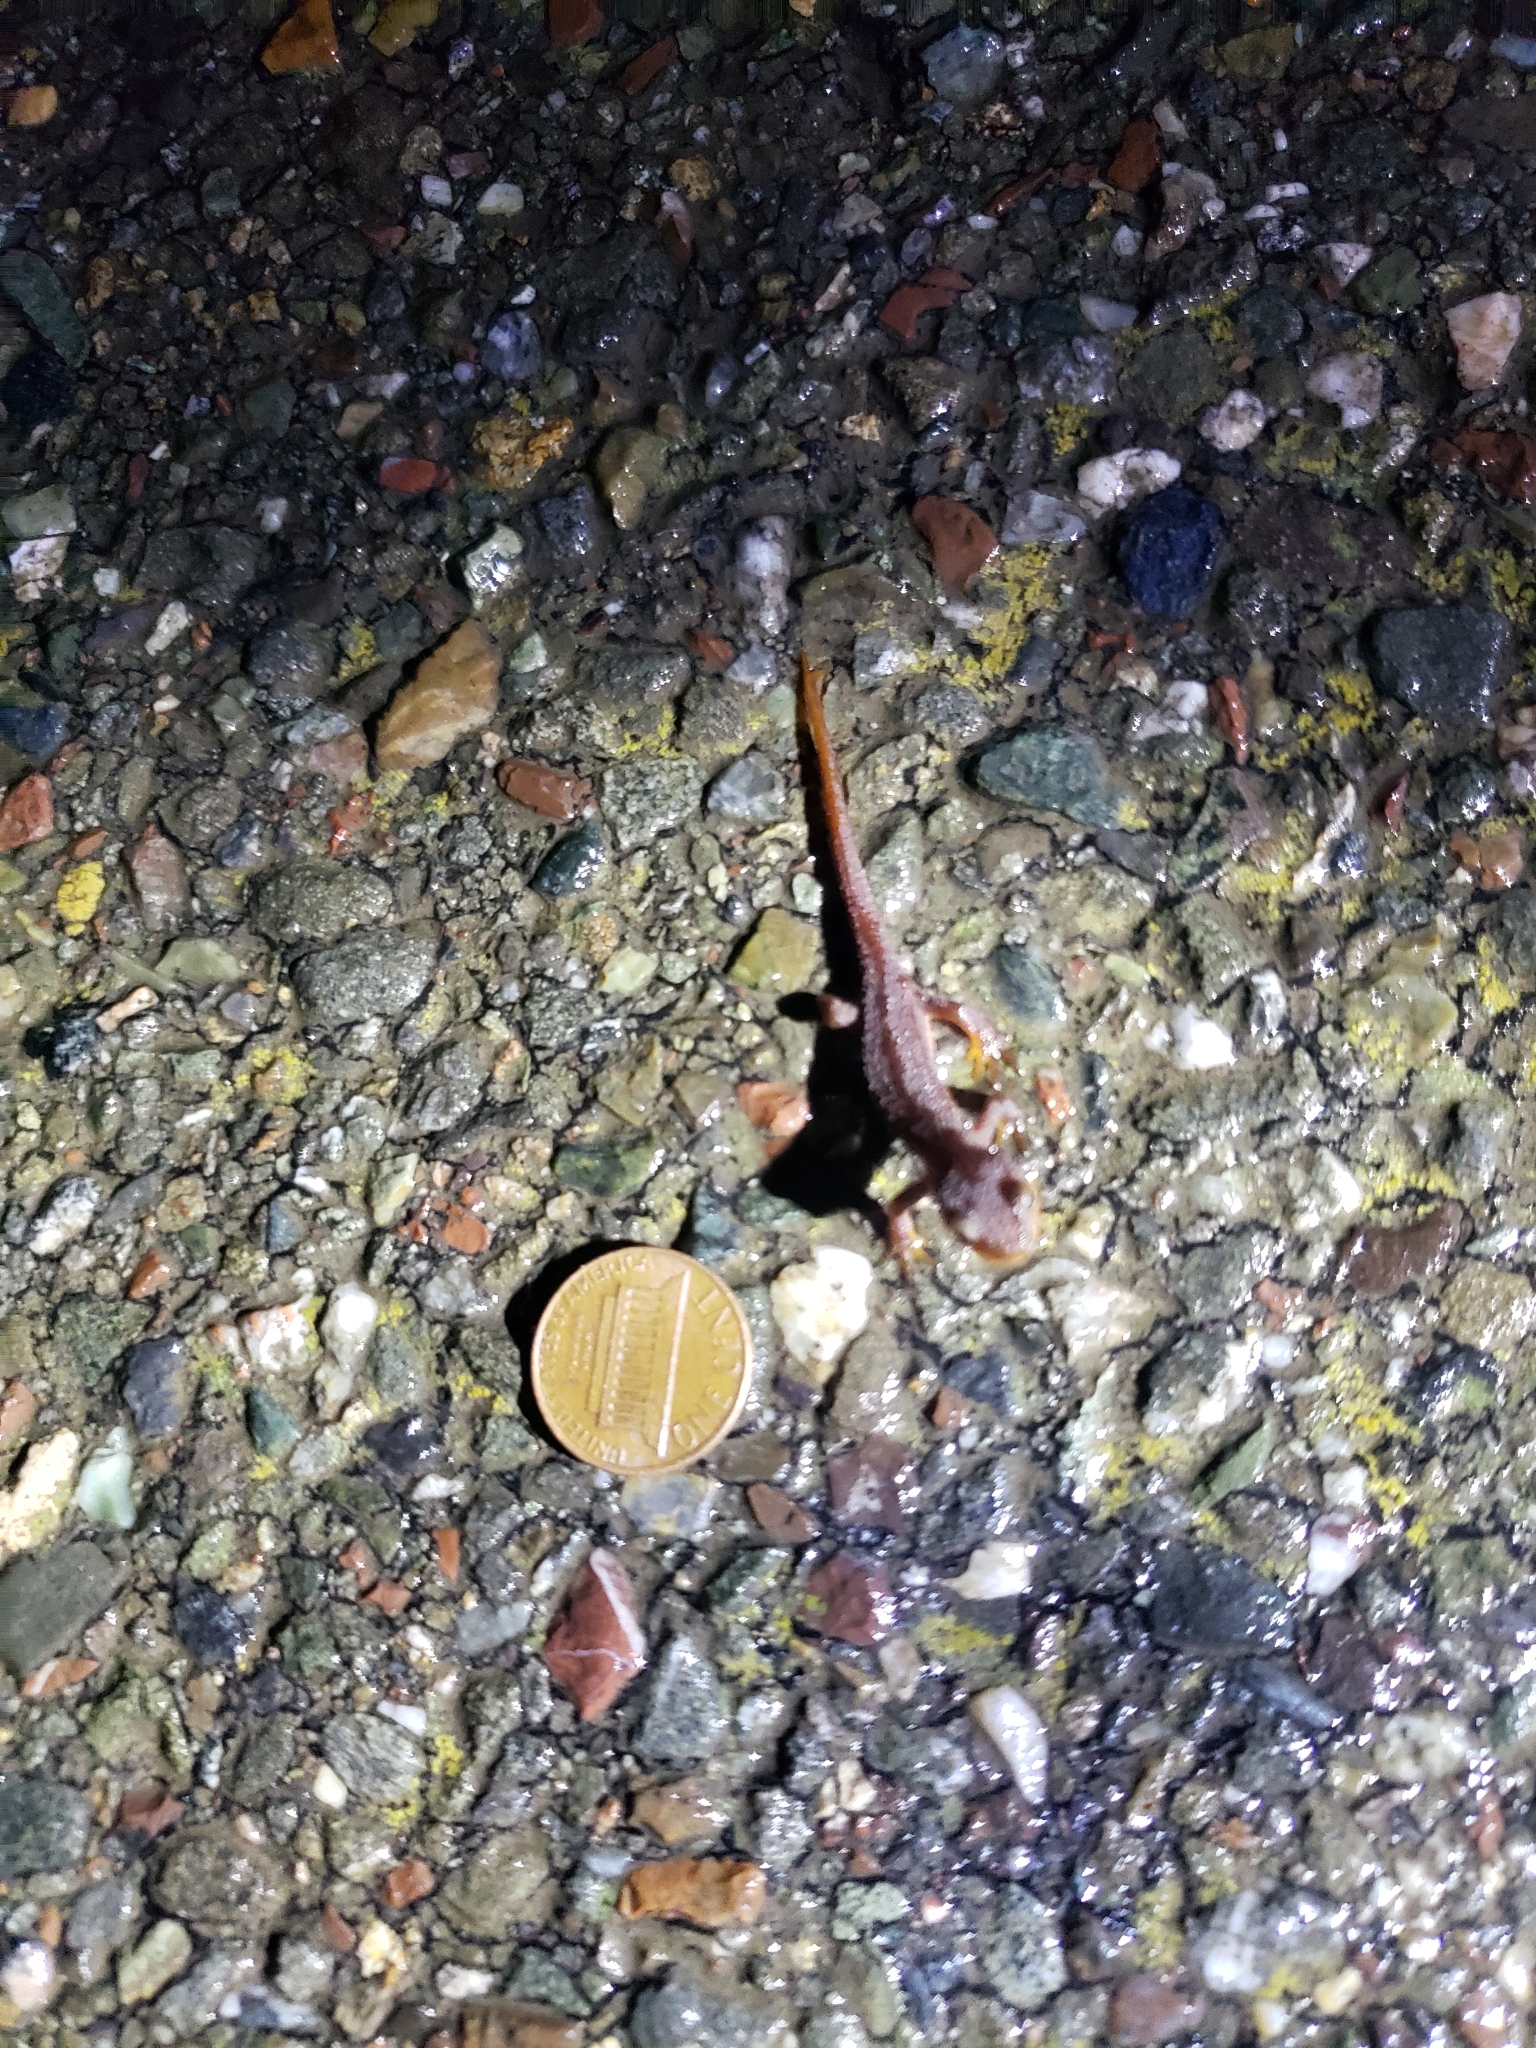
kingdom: Animalia
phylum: Chordata
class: Amphibia
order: Caudata
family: Salamandridae
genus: Taricha
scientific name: Taricha torosa
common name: California newt
